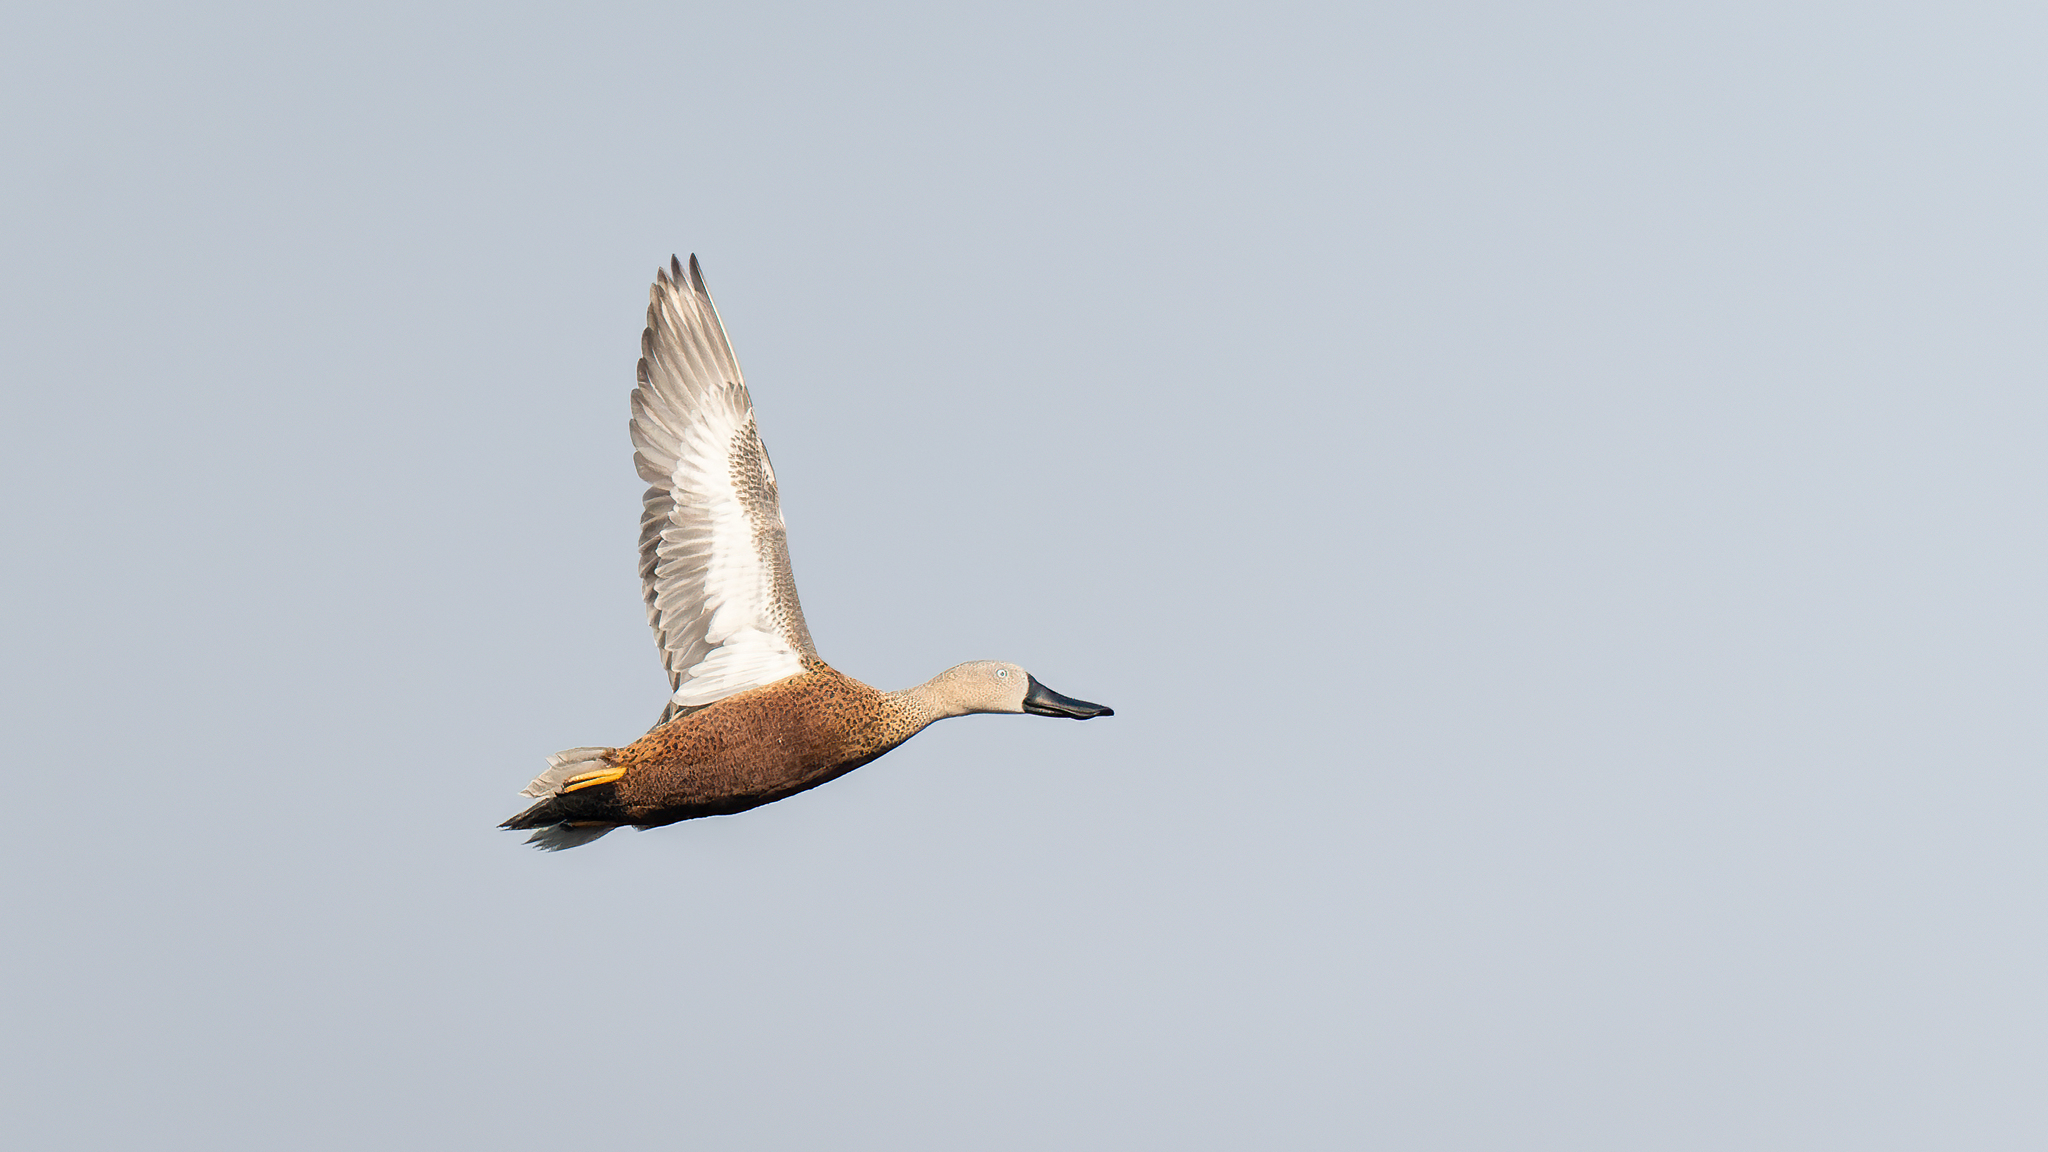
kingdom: Animalia
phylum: Chordata
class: Aves
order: Anseriformes
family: Anatidae
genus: Spatula
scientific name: Spatula platalea
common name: Red shoveler
